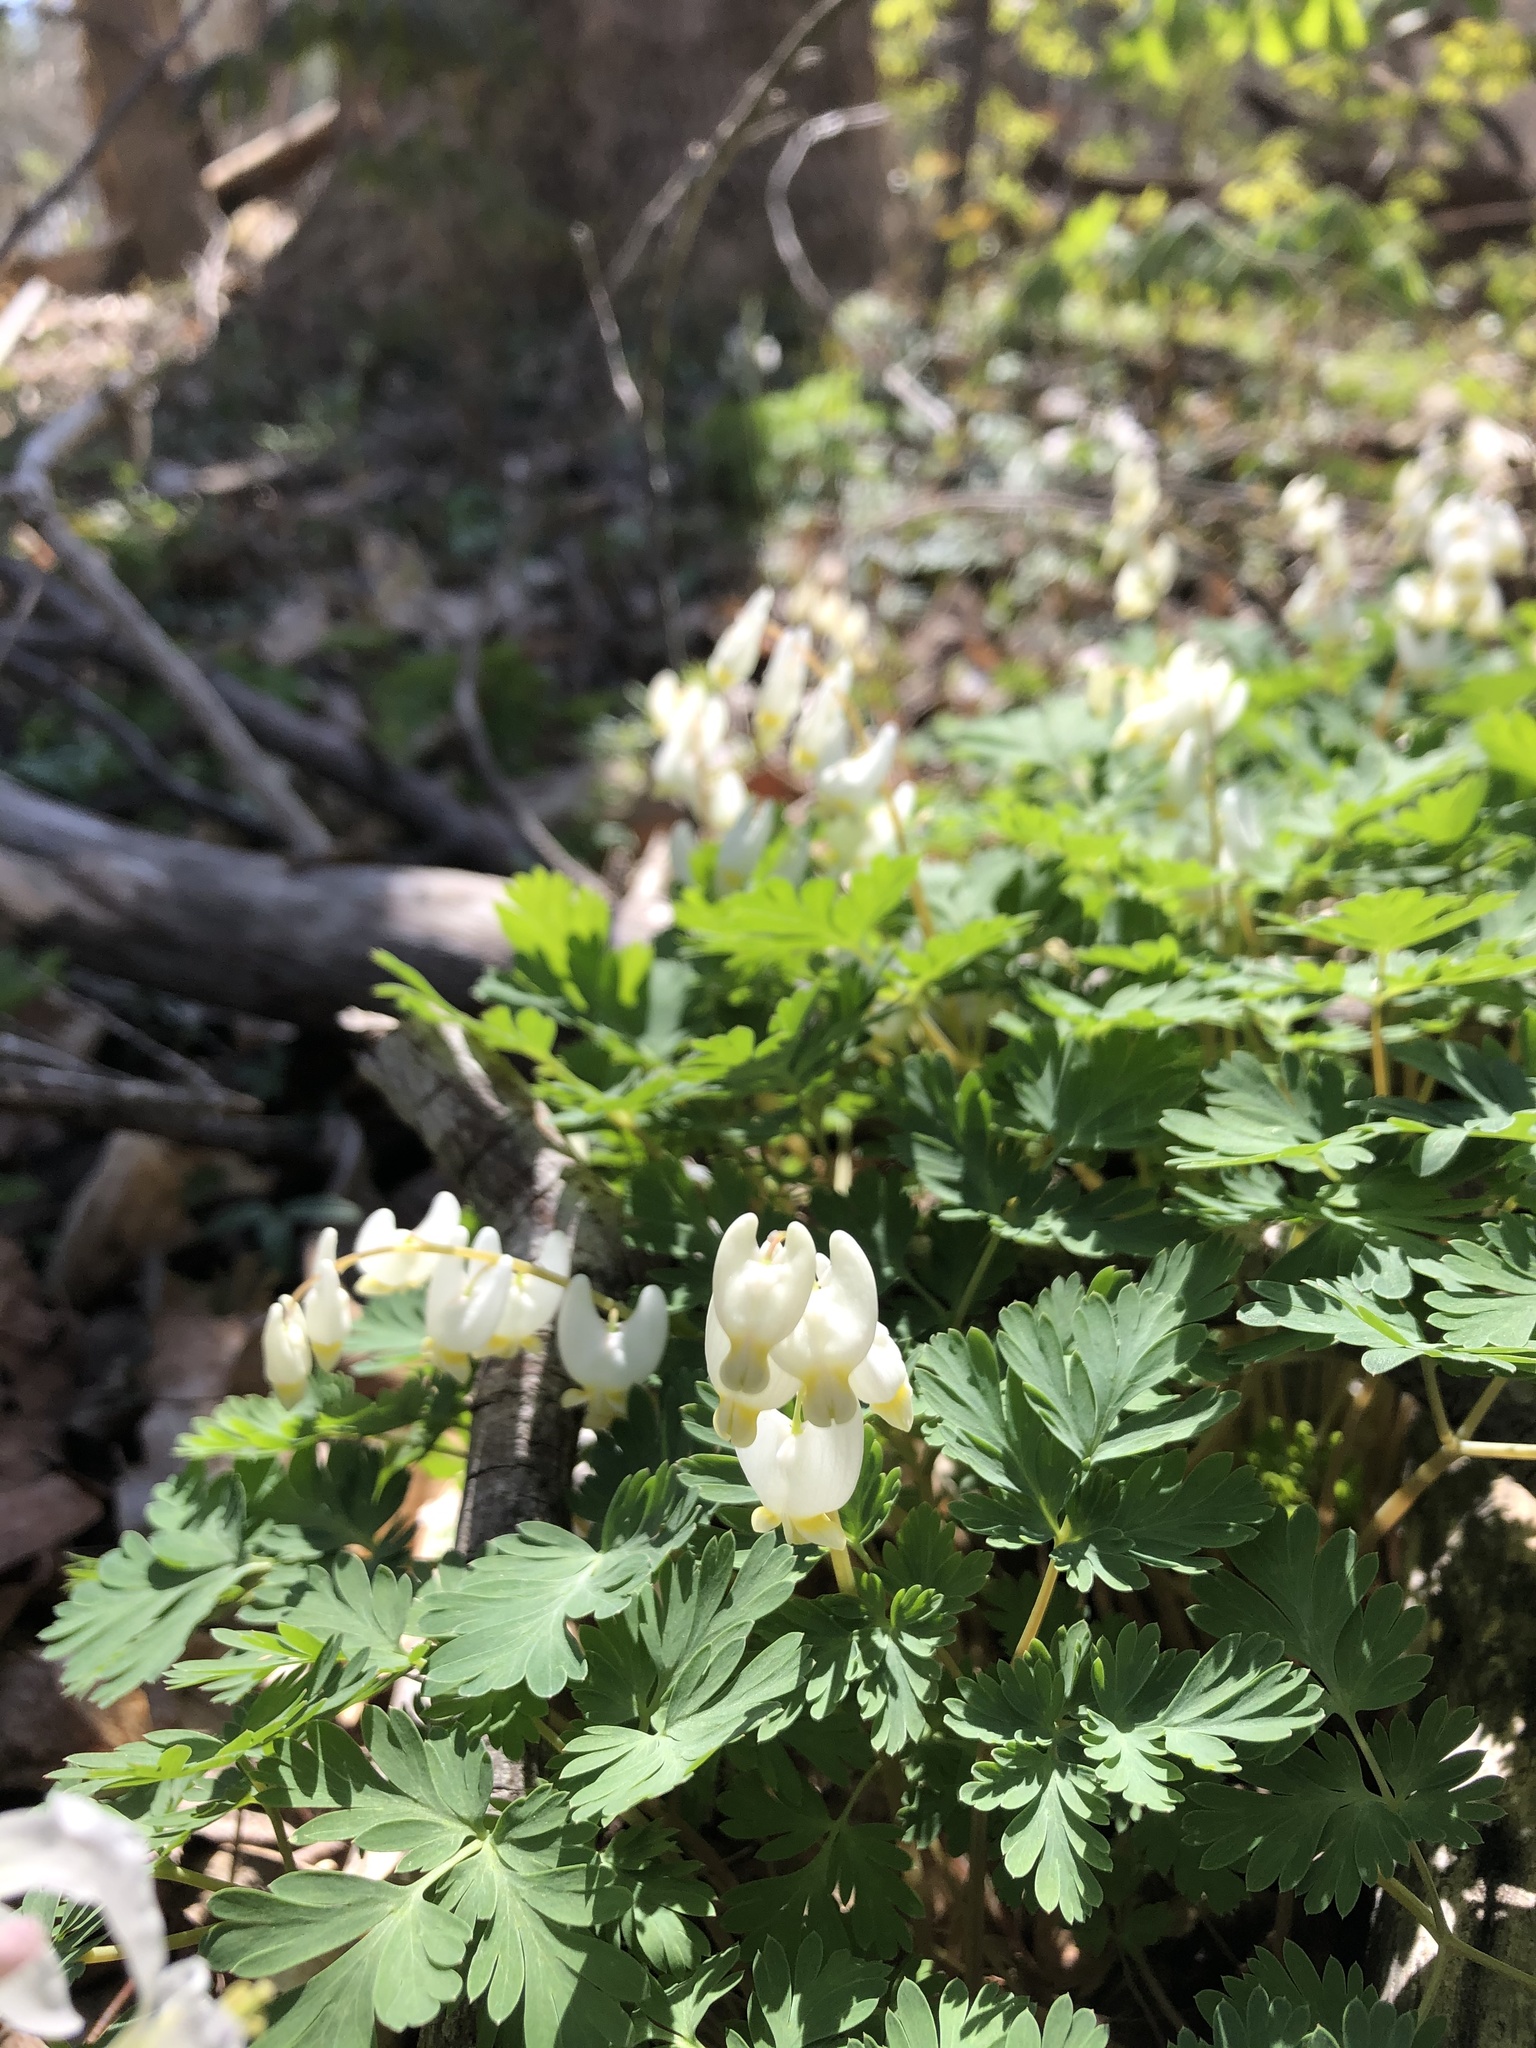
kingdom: Plantae
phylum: Tracheophyta
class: Magnoliopsida
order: Ranunculales
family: Papaveraceae
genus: Dicentra
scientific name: Dicentra cucullaria
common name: Dutchman's breeches
